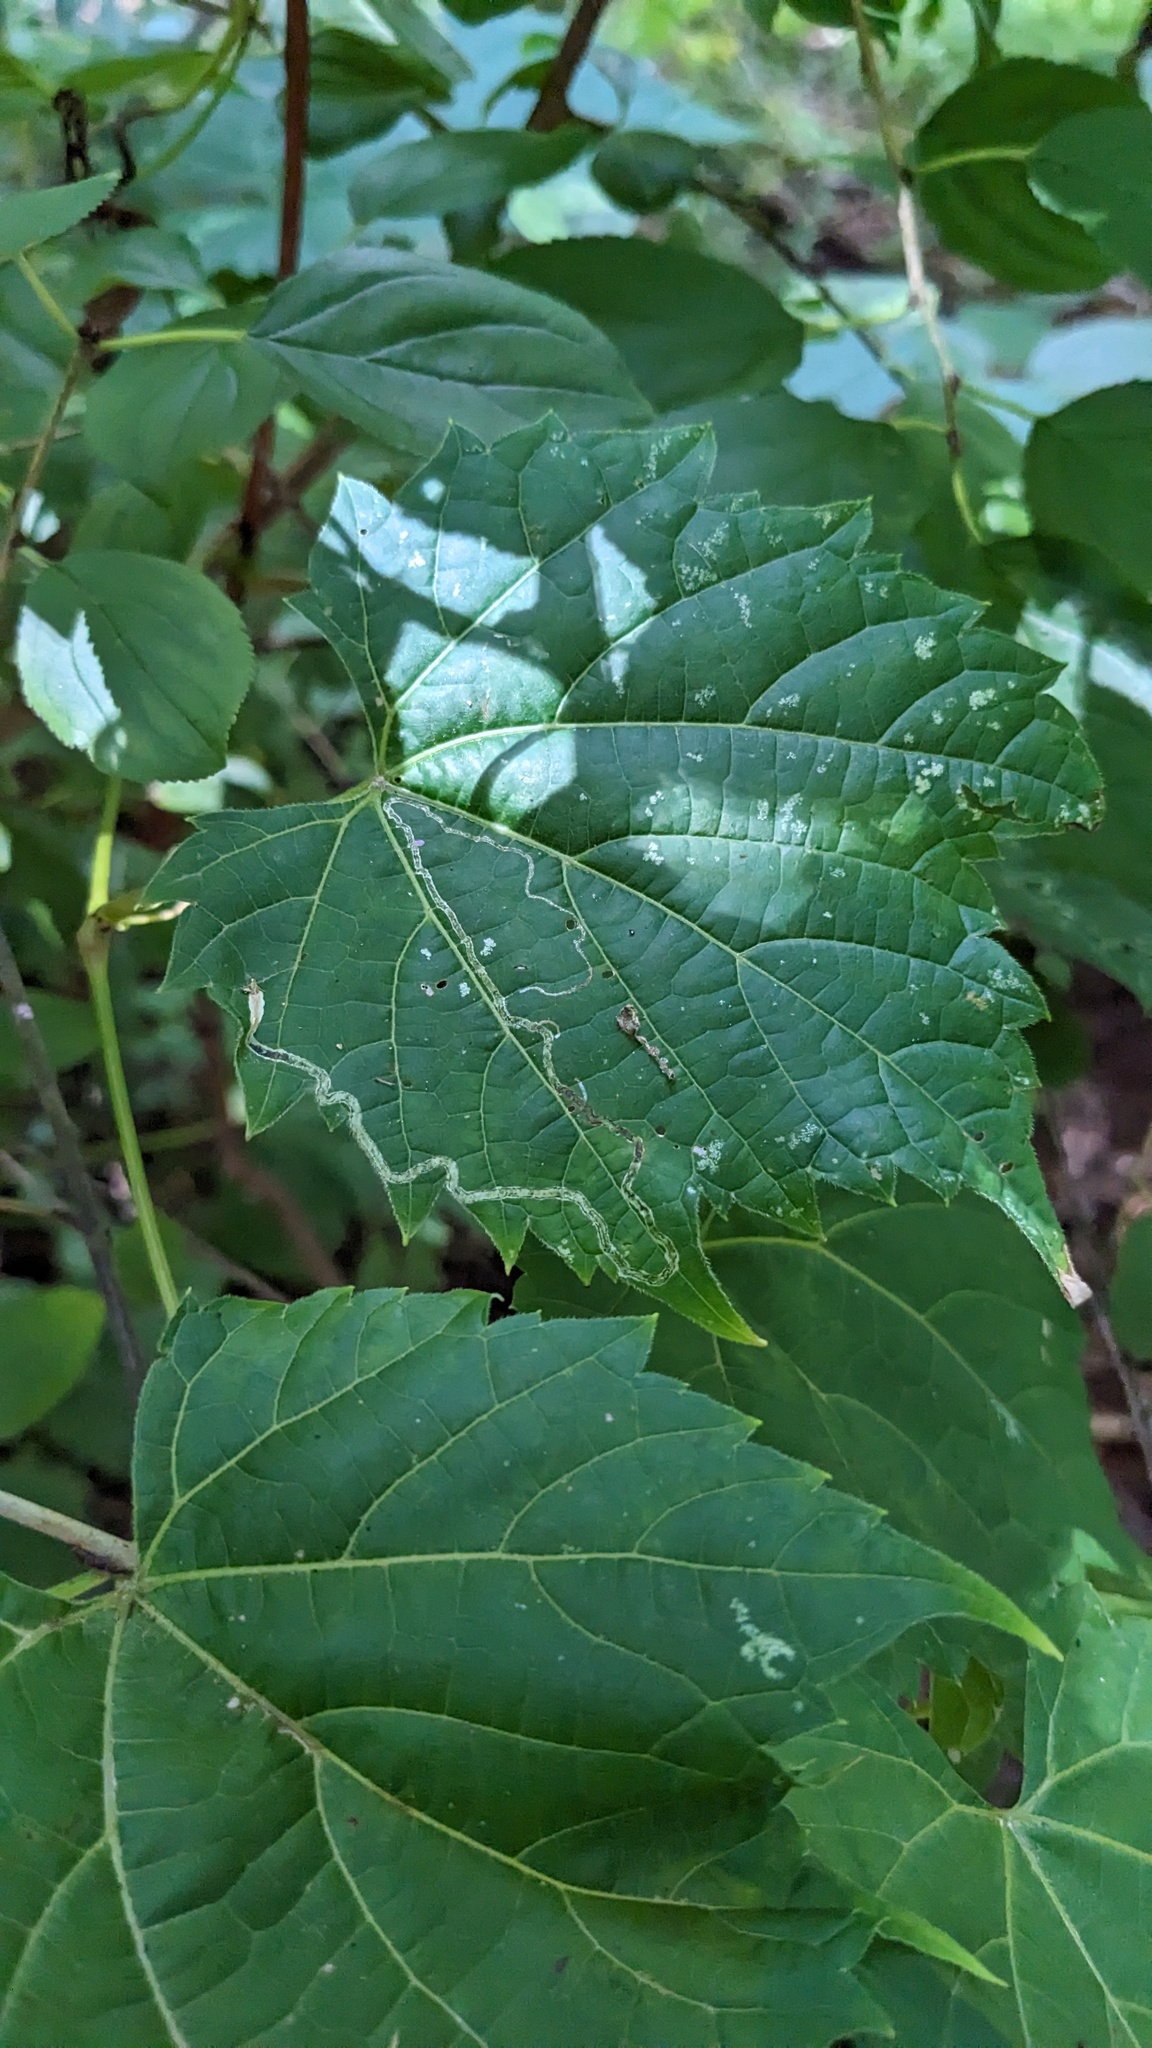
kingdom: Animalia
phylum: Arthropoda
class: Insecta
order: Lepidoptera
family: Gracillariidae
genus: Phyllocnistis
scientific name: Phyllocnistis vitifoliella
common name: Grape leaf-miner moth
